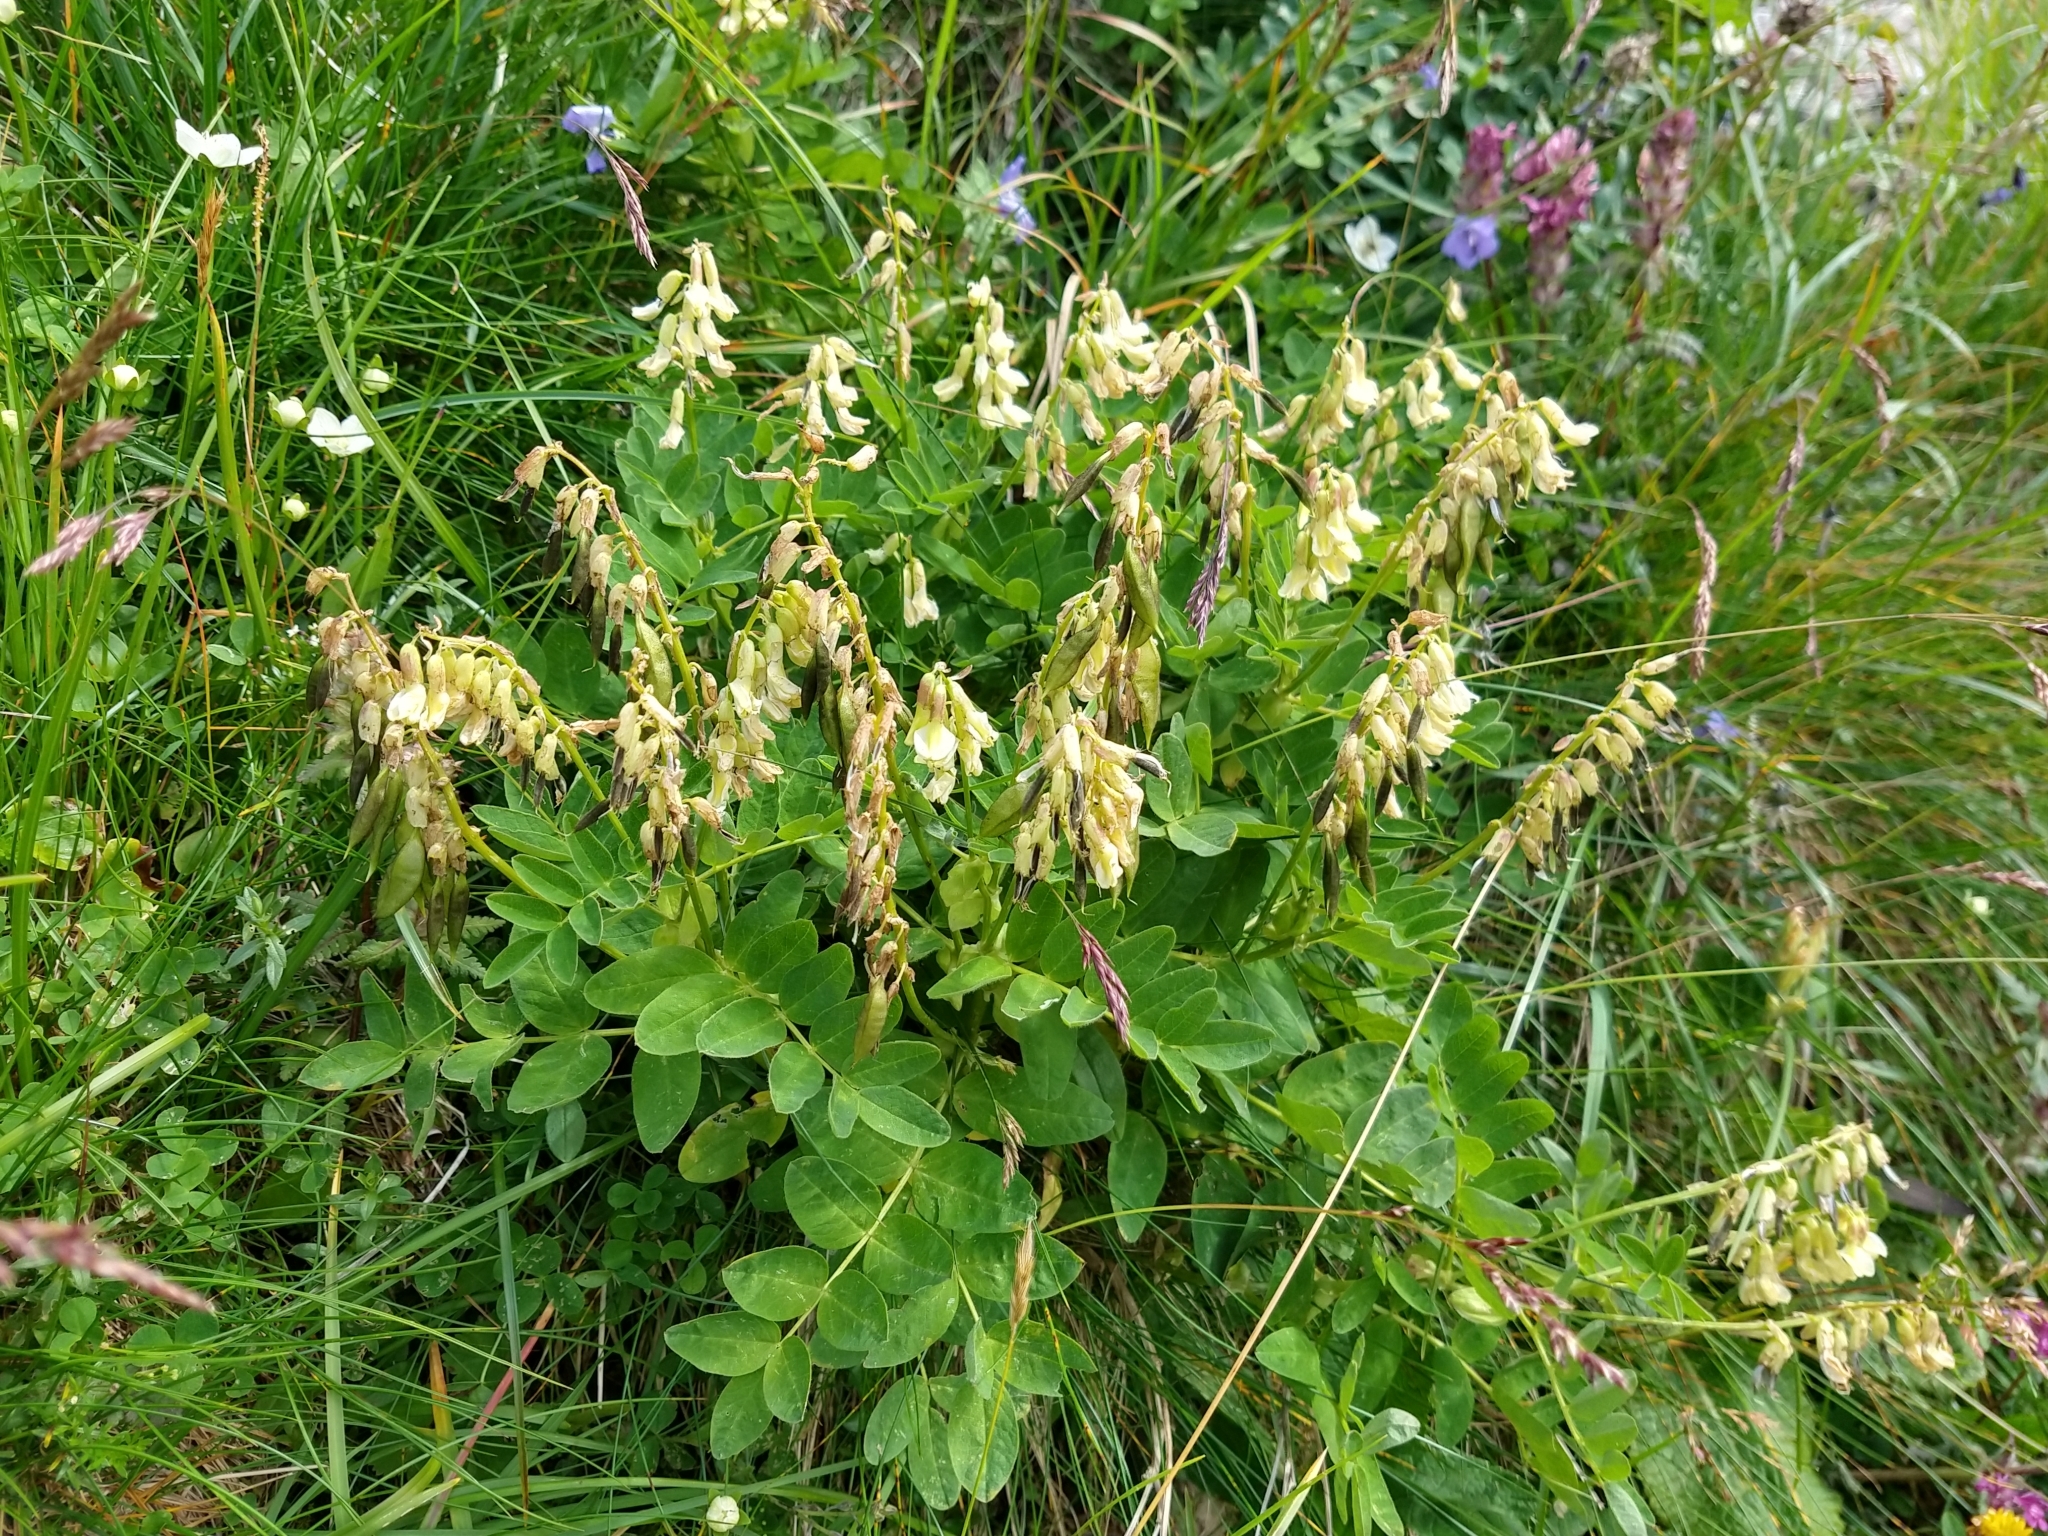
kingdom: Plantae
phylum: Tracheophyta
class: Magnoliopsida
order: Fabales
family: Fabaceae
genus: Astragalus
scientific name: Astragalus frigidus
